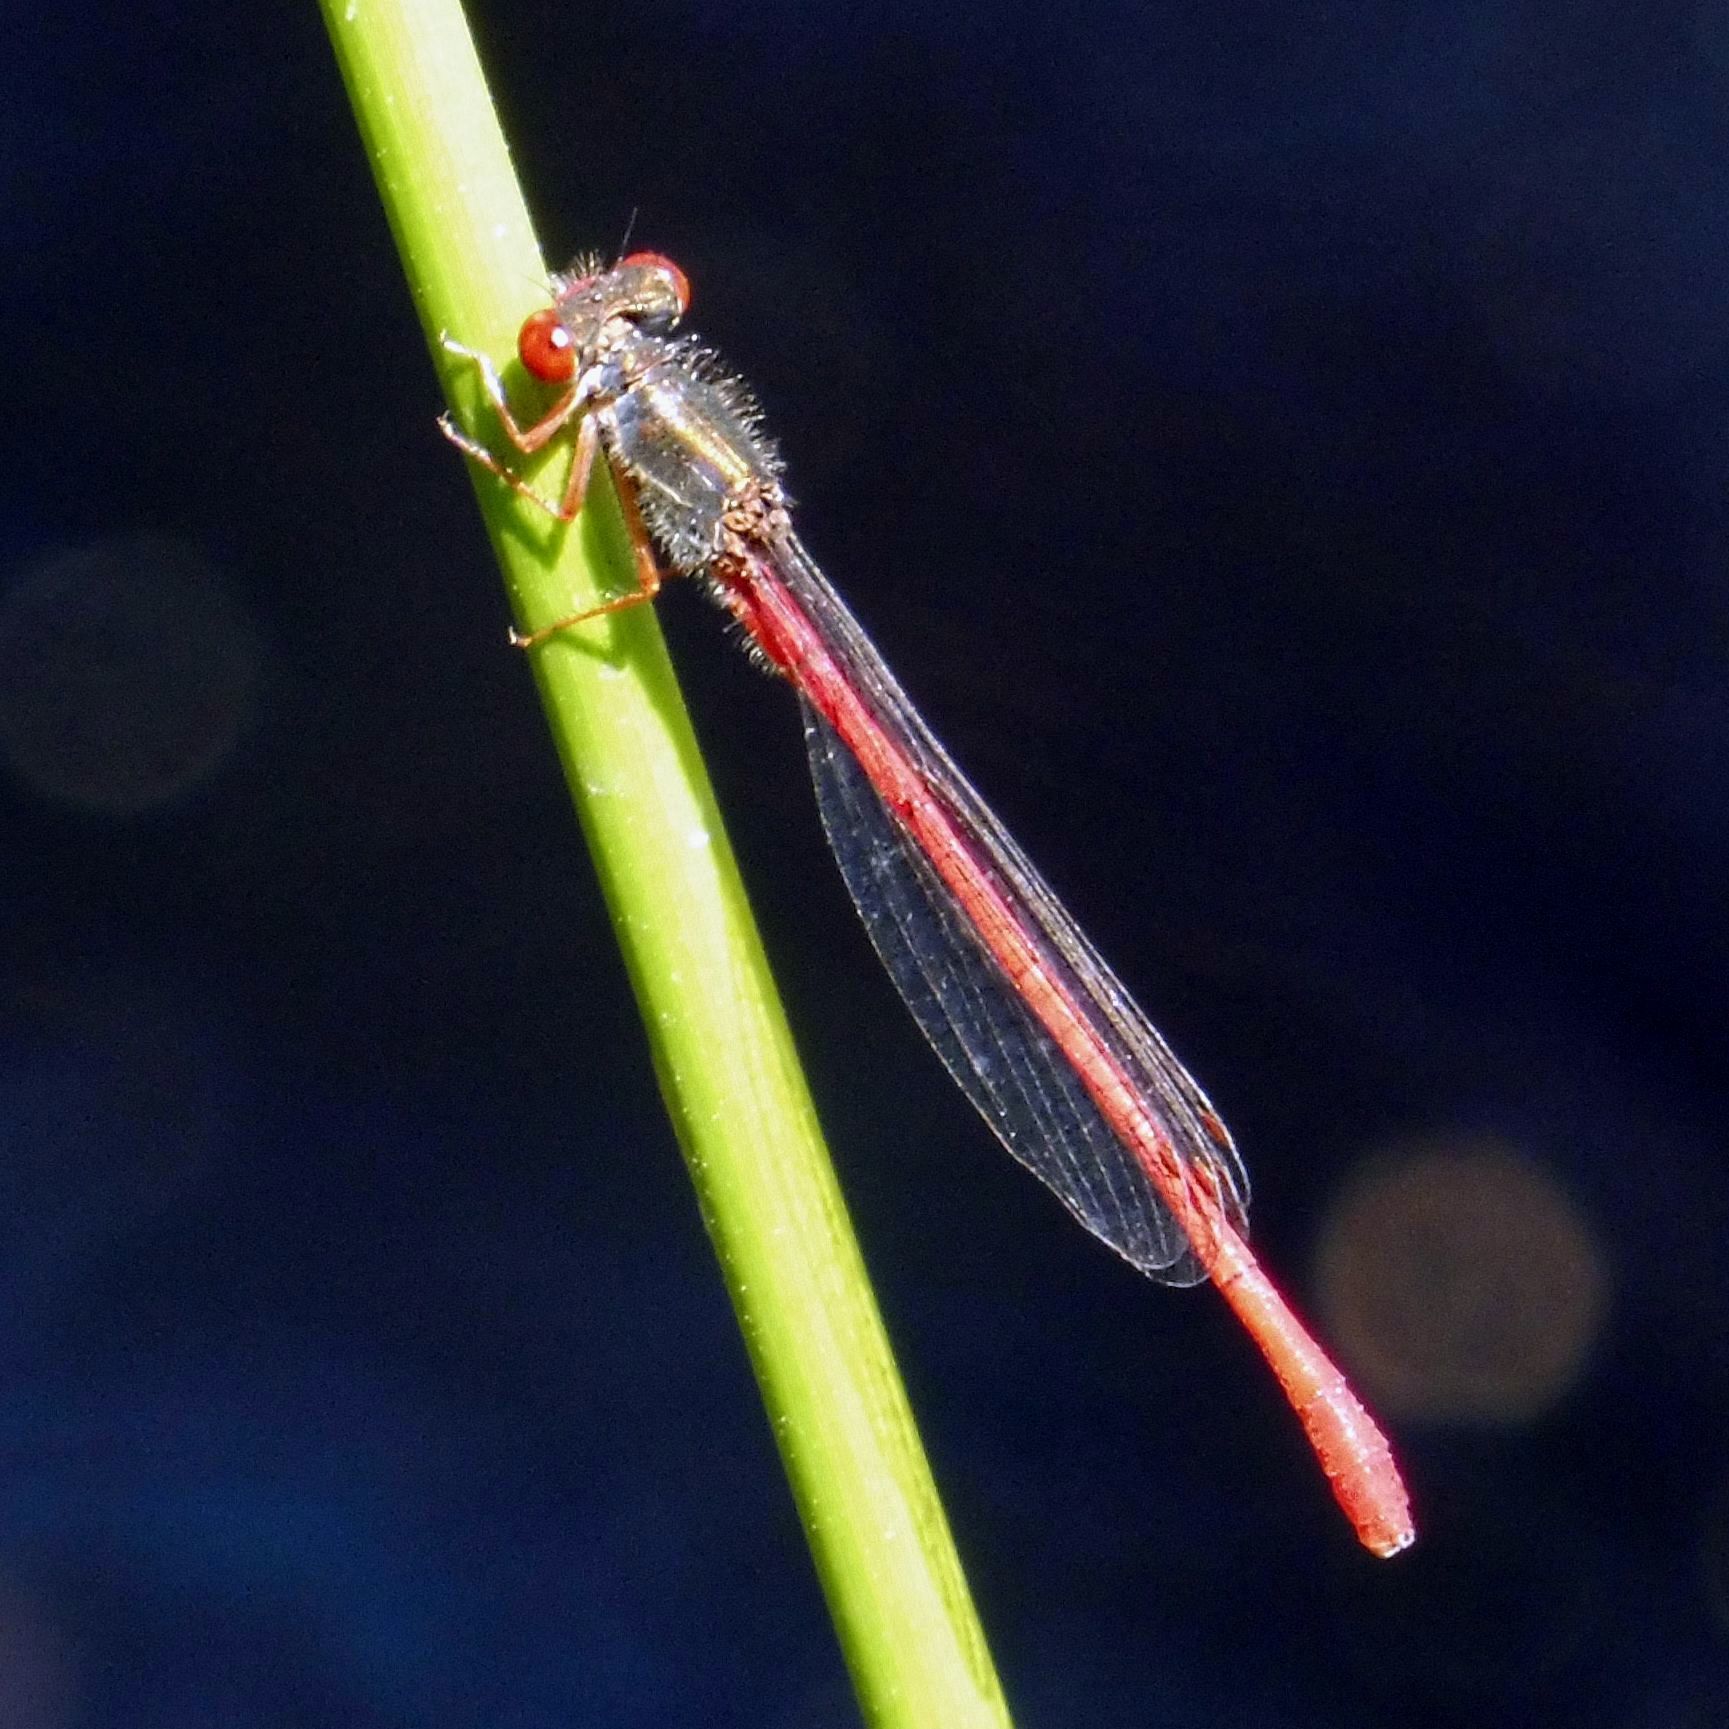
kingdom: Animalia
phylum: Arthropoda
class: Insecta
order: Odonata
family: Coenagrionidae
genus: Ceriagrion
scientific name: Ceriagrion tenellum
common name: Small red damselfly
